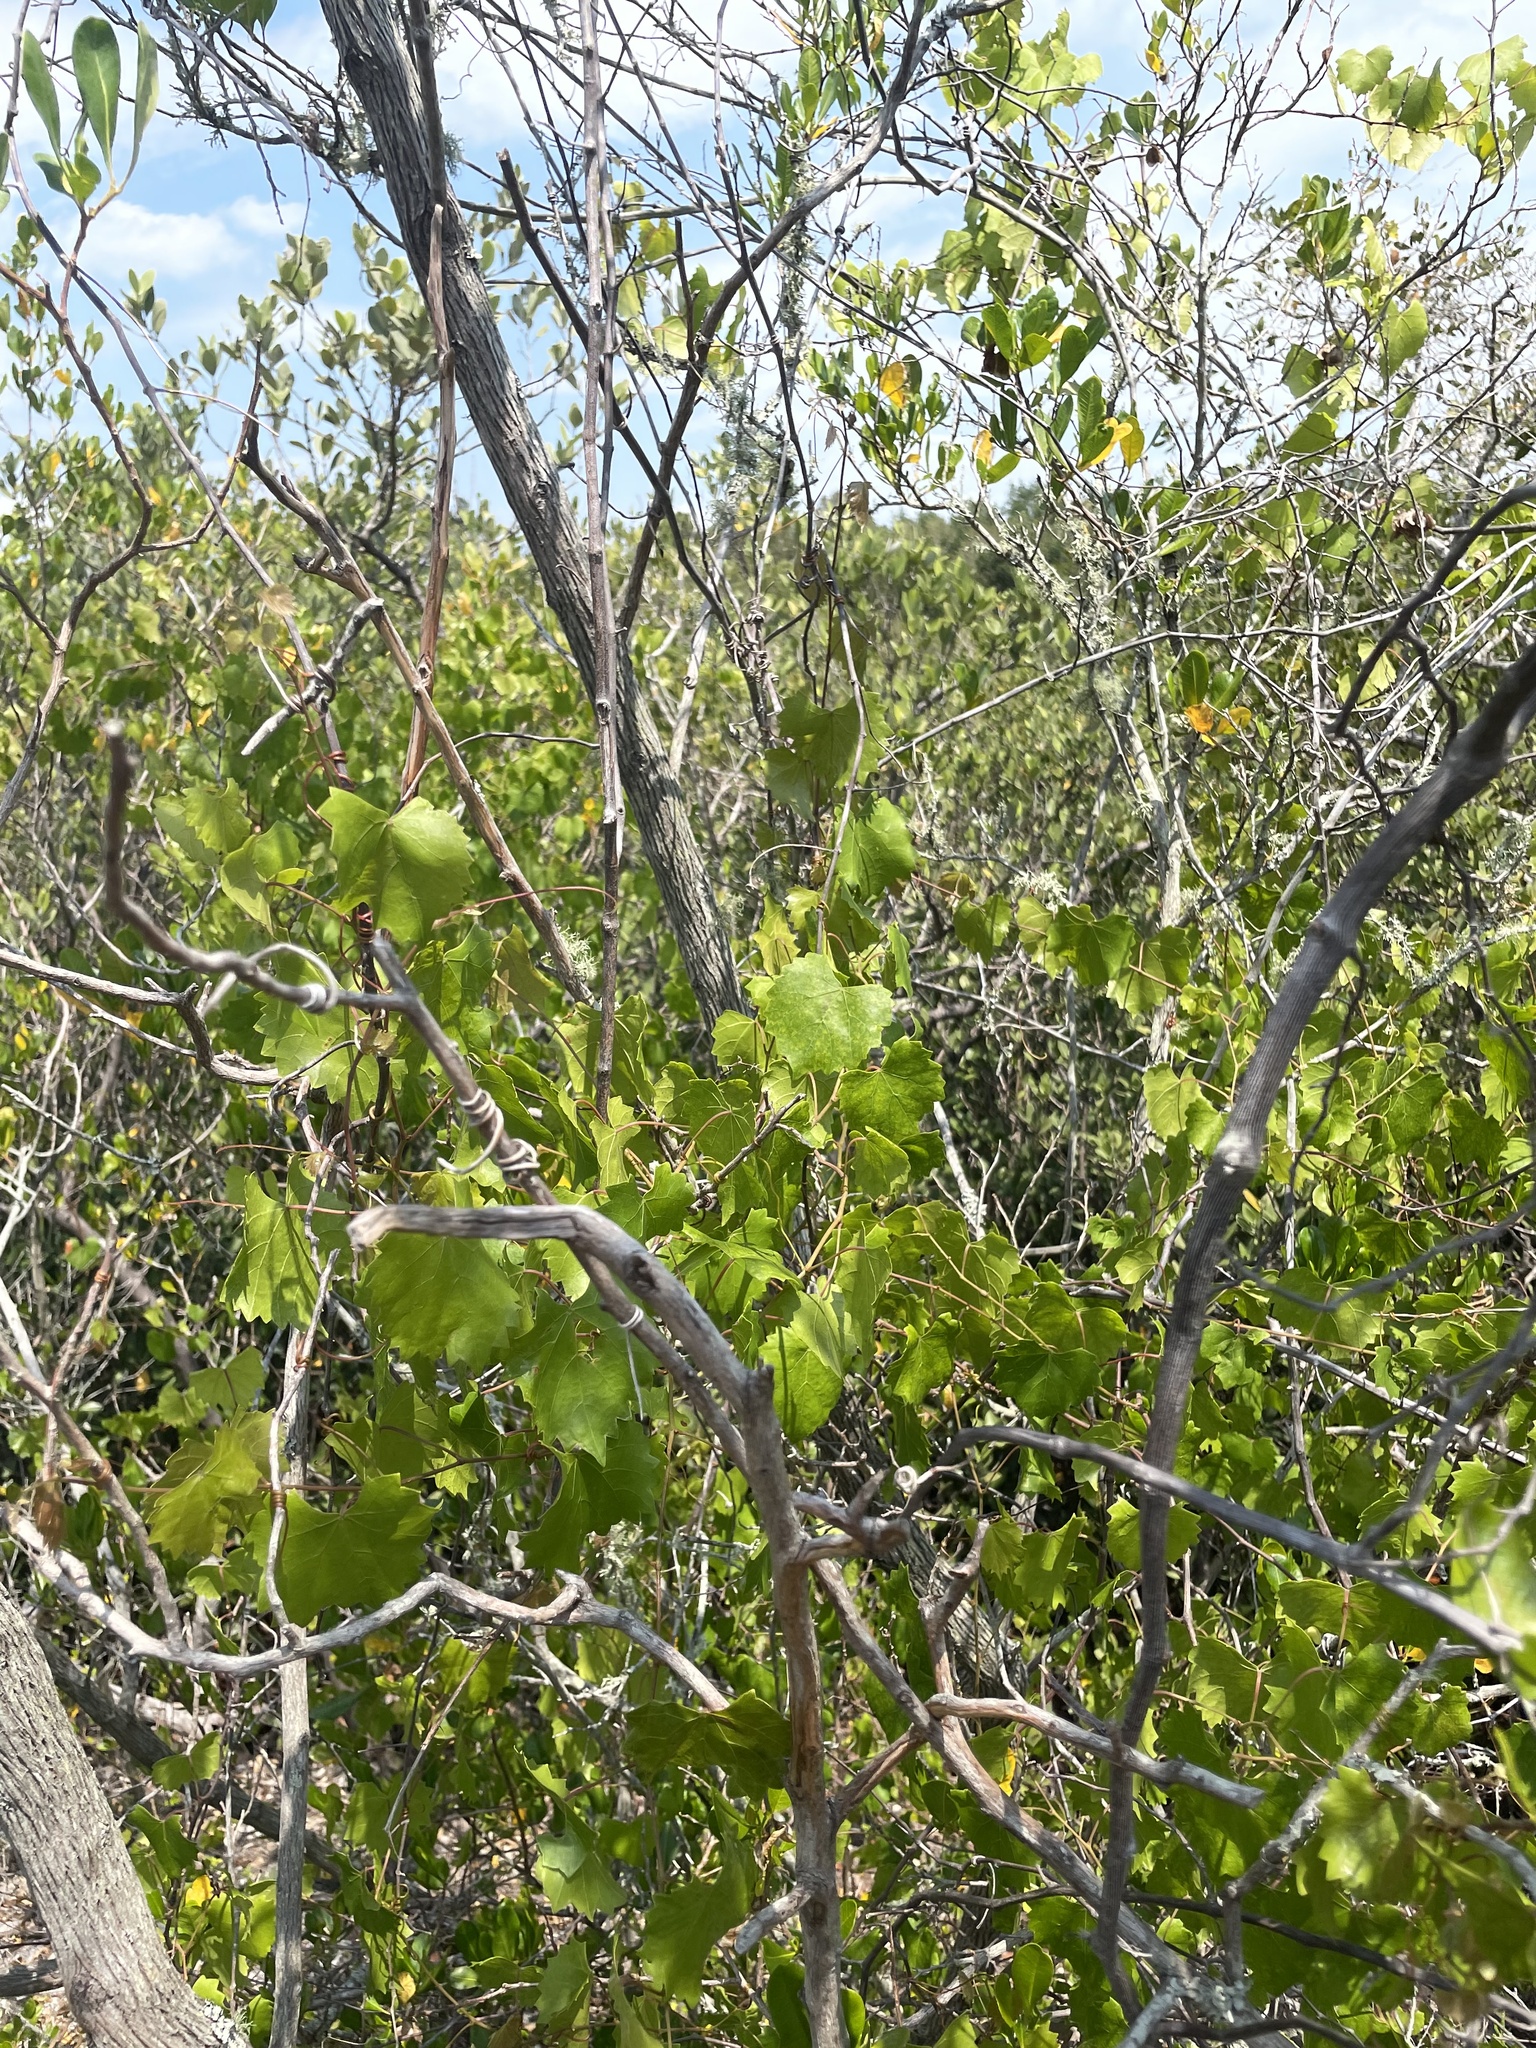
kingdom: Plantae
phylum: Tracheophyta
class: Magnoliopsida
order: Vitales
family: Vitaceae
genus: Vitis
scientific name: Vitis rotundifolia
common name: Muscadine grape
